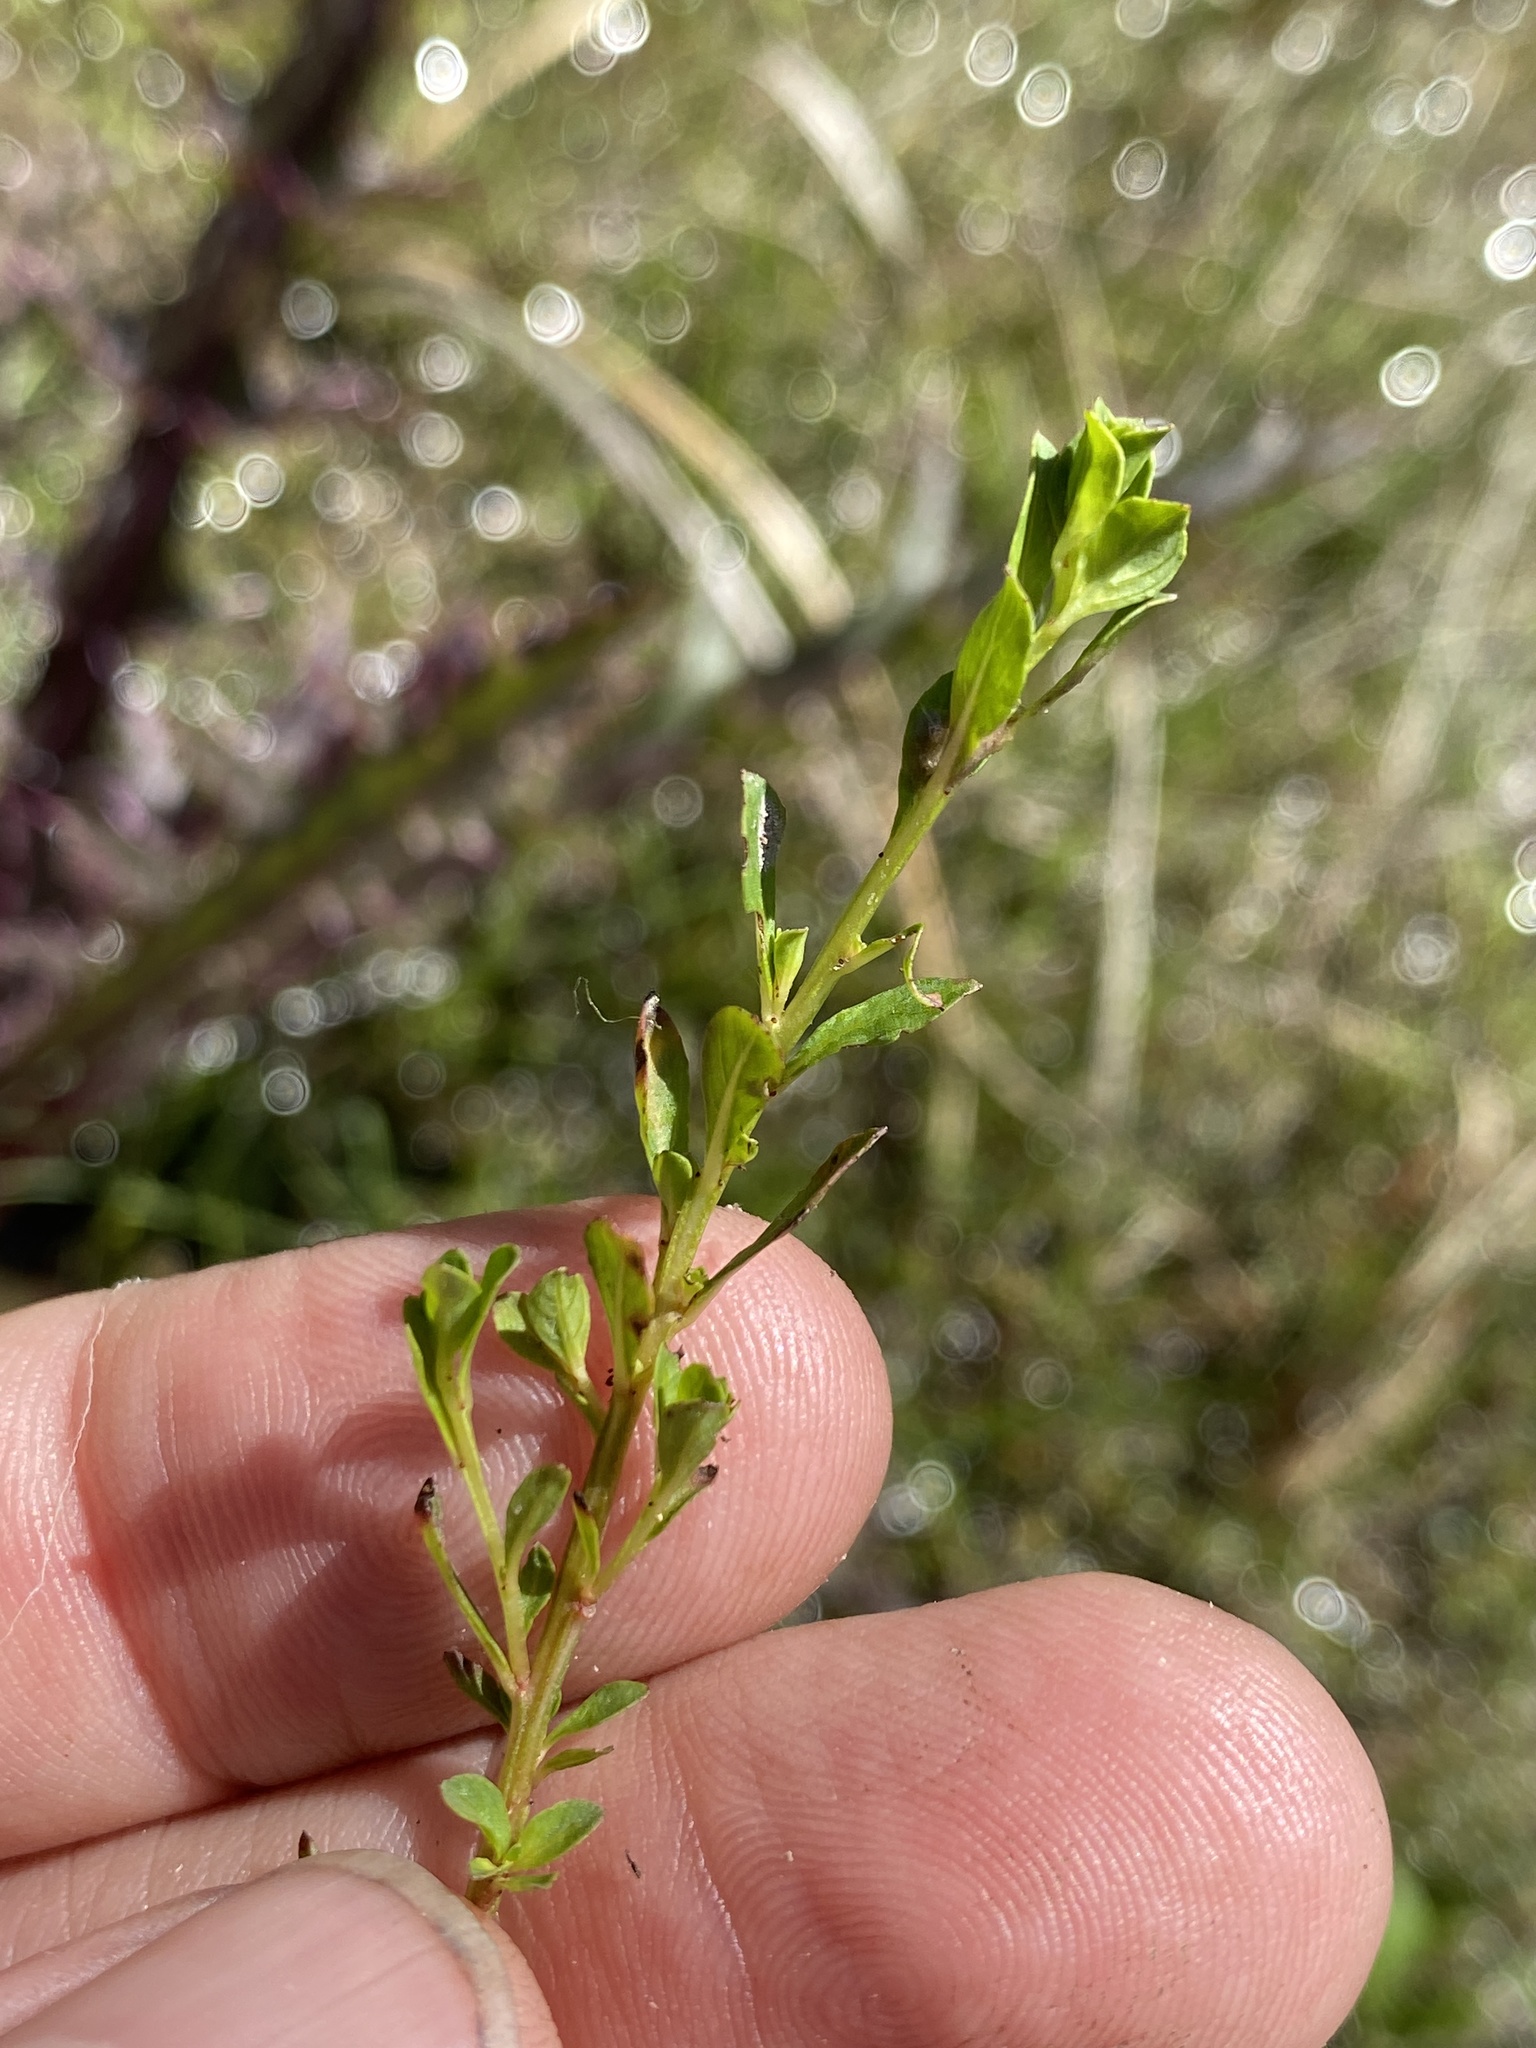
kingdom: Plantae
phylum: Tracheophyta
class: Magnoliopsida
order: Myrtales
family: Onagraceae
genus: Ludwigia
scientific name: Ludwigia microcarpa
